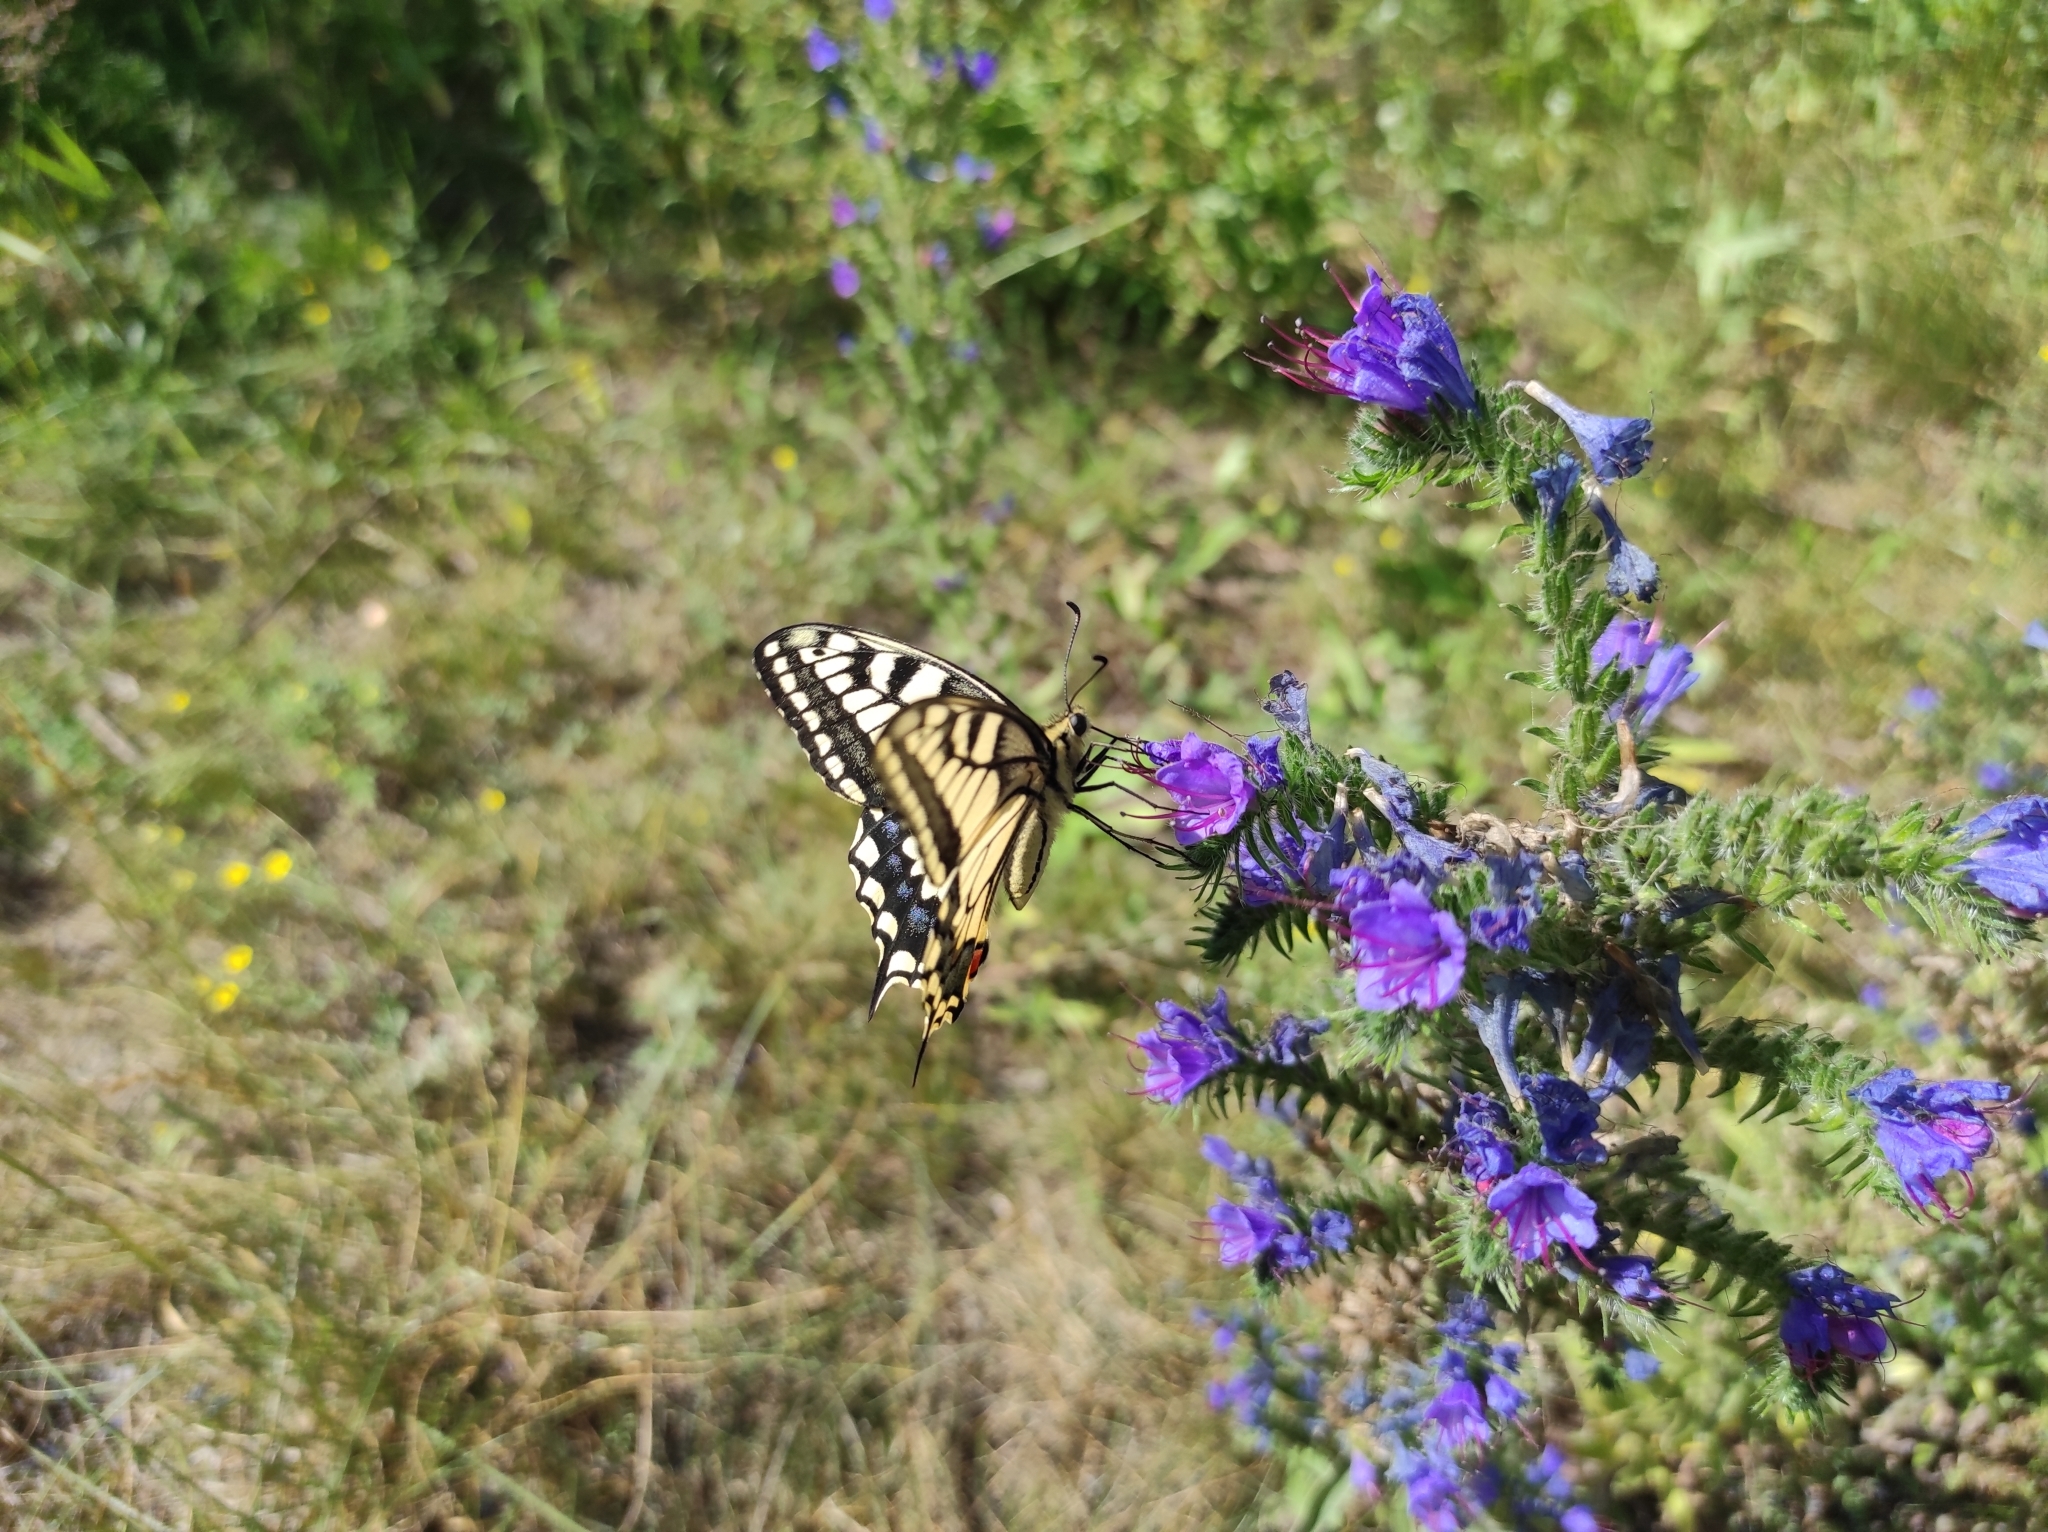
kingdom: Plantae
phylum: Tracheophyta
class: Magnoliopsida
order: Boraginales
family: Boraginaceae
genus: Echium
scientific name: Echium vulgare
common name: Common viper's bugloss
